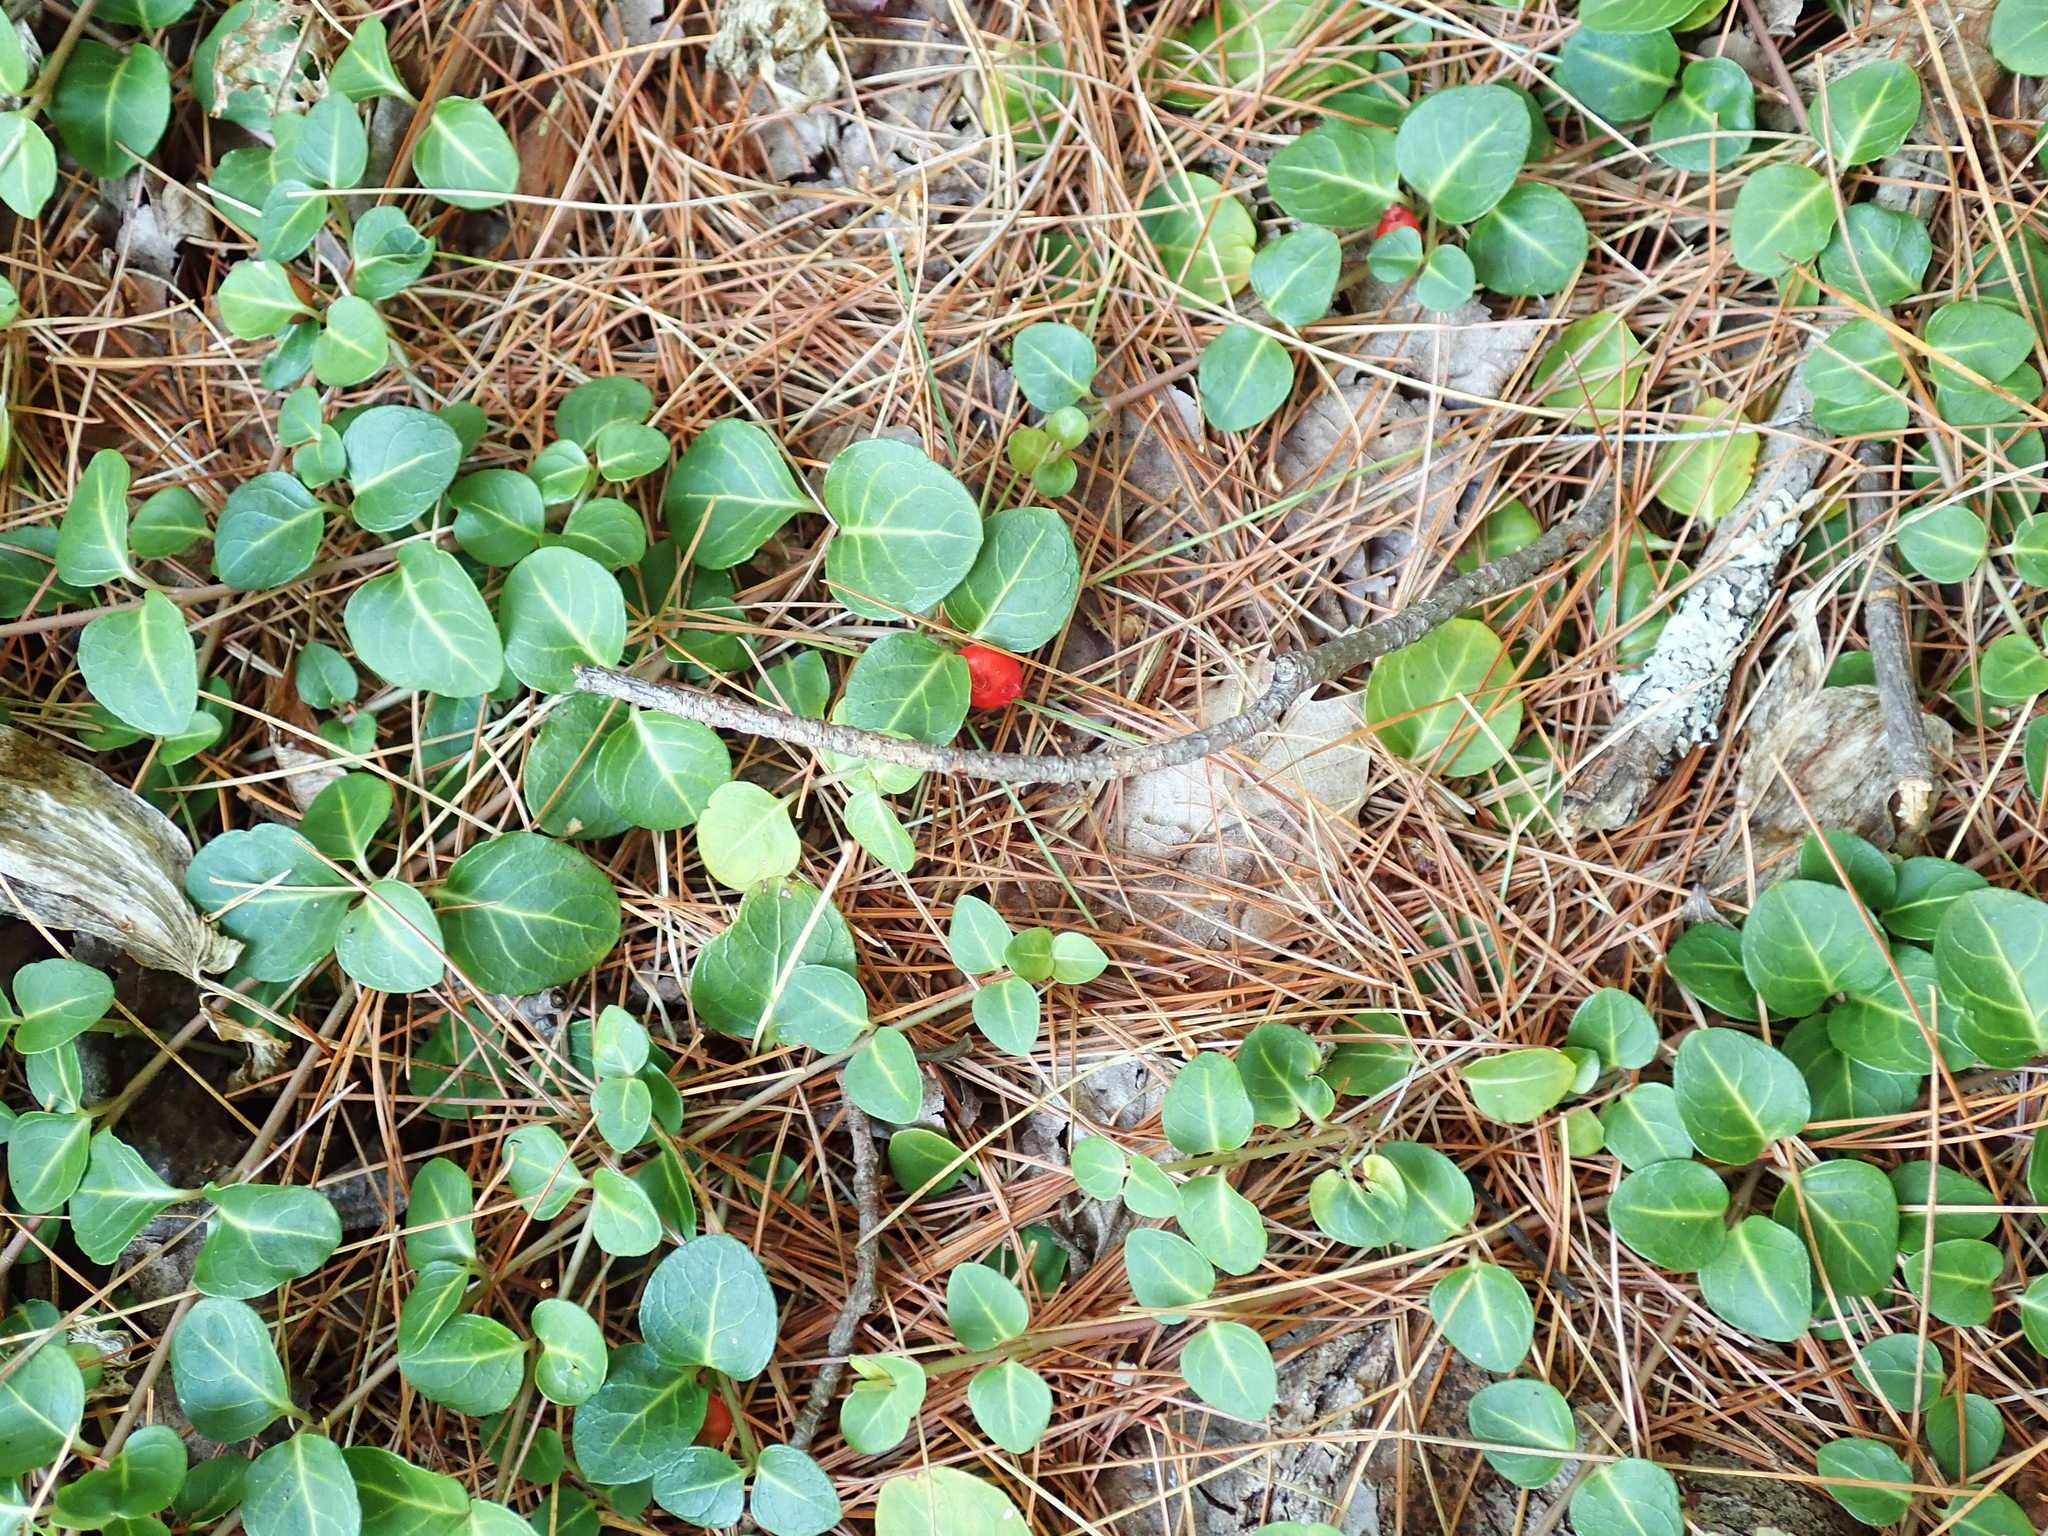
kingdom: Plantae
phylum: Tracheophyta
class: Magnoliopsida
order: Gentianales
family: Rubiaceae
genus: Mitchella
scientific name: Mitchella repens
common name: Partridge-berry
